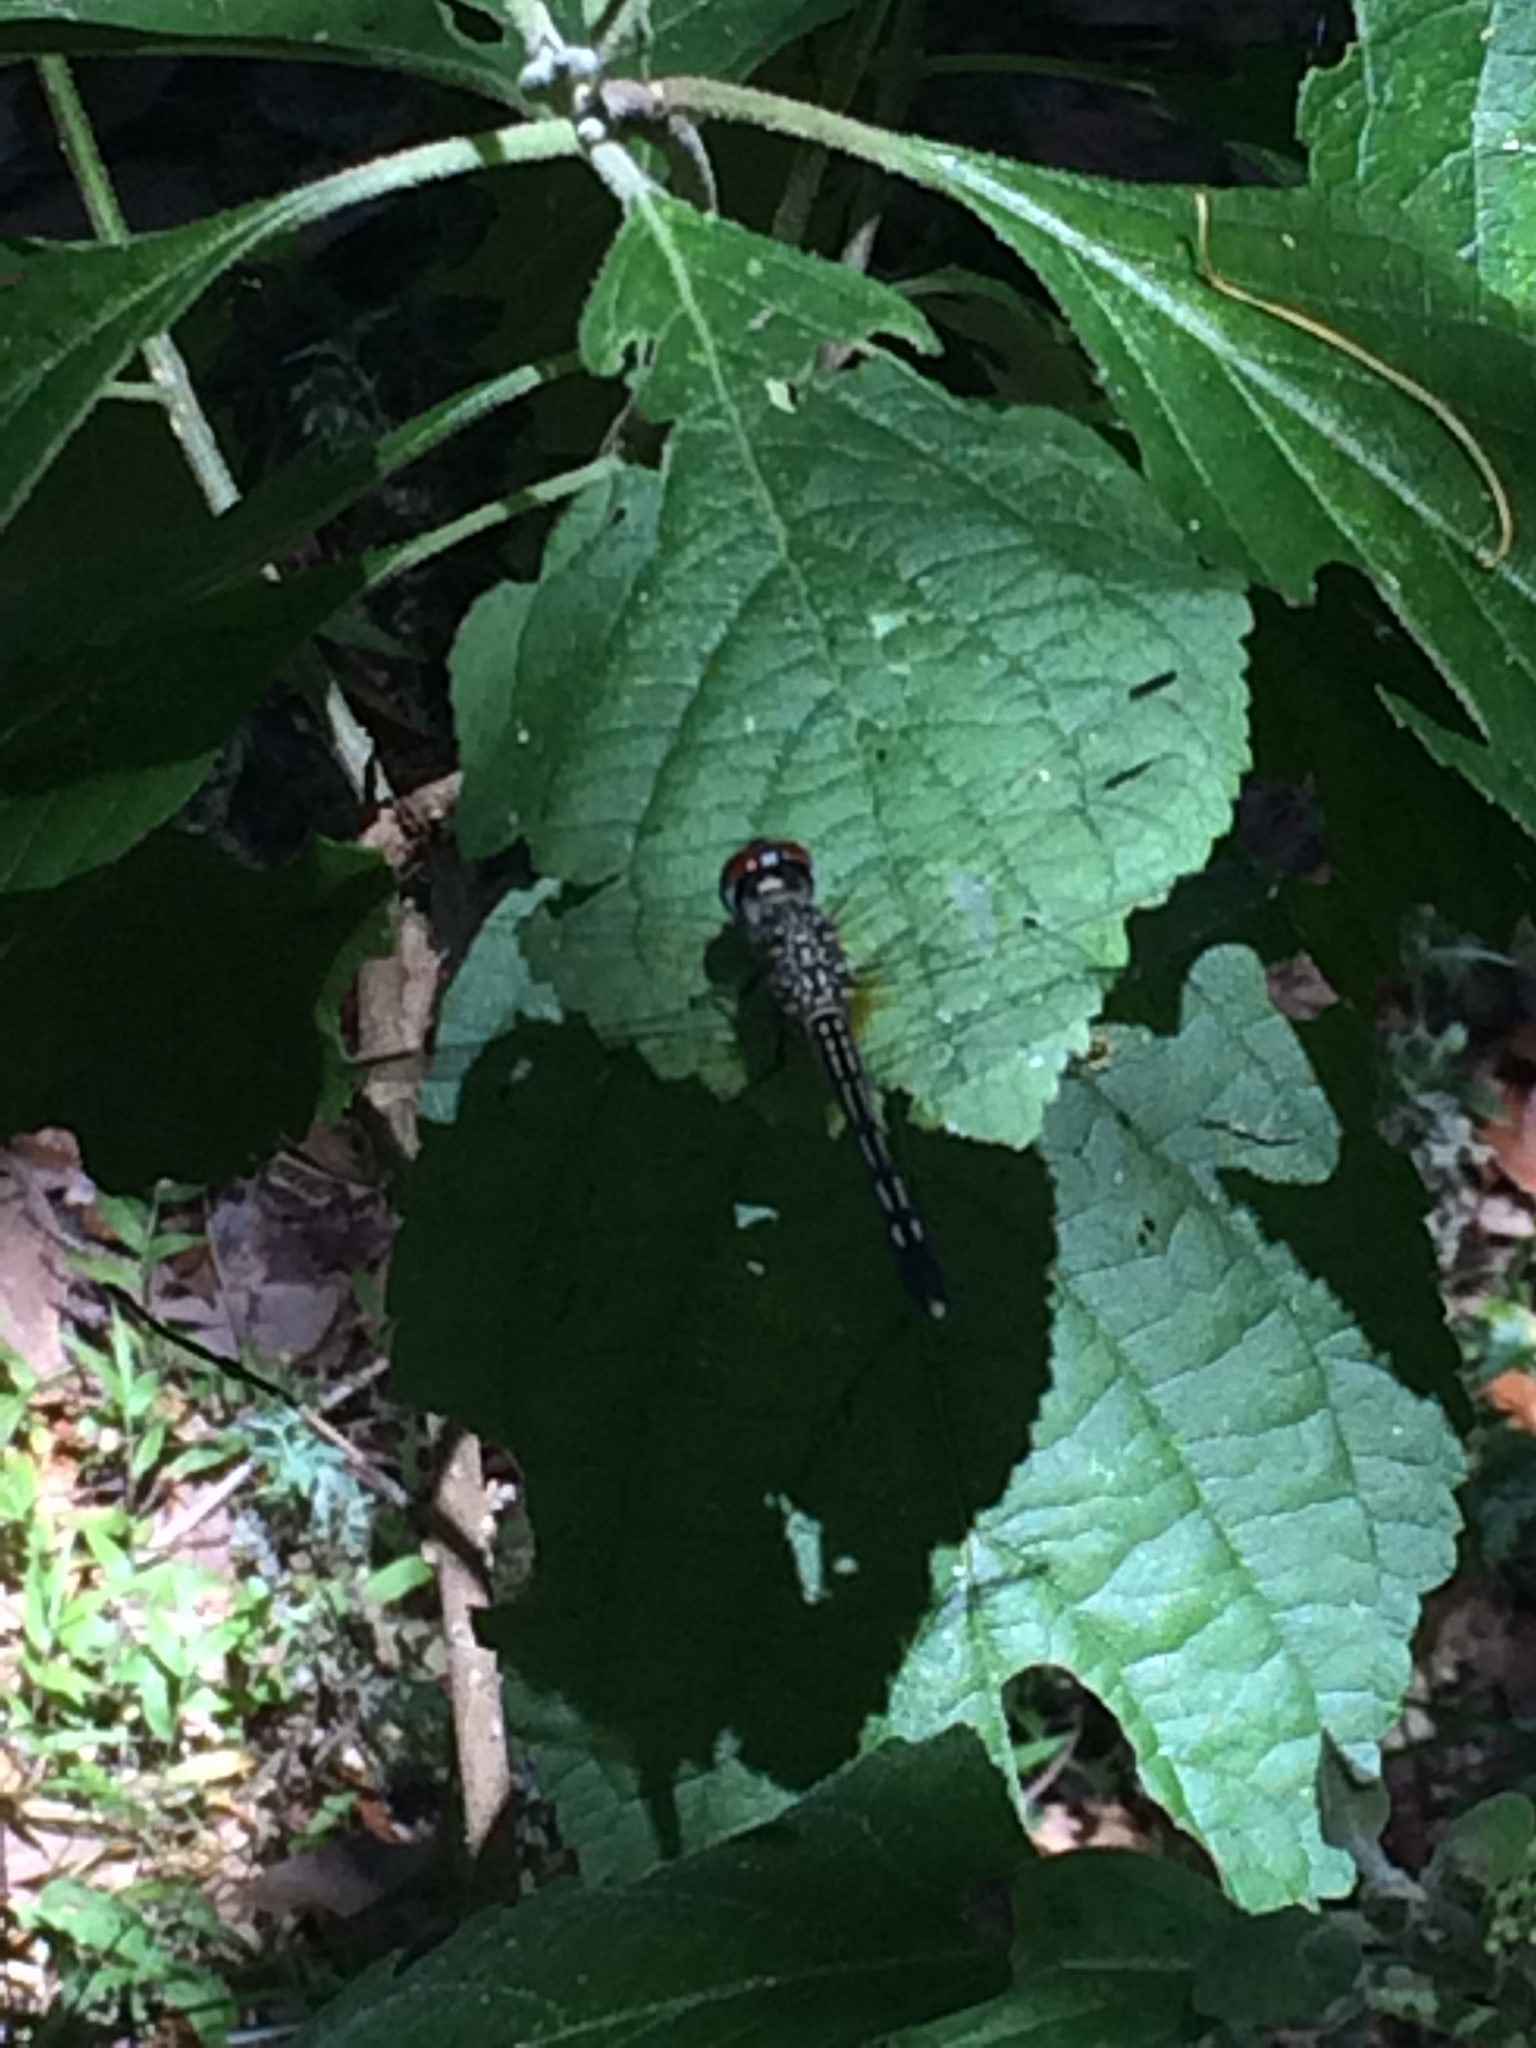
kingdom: Animalia
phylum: Arthropoda
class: Insecta
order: Odonata
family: Libellulidae
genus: Pachydiplax
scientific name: Pachydiplax longipennis
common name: Blue dasher
